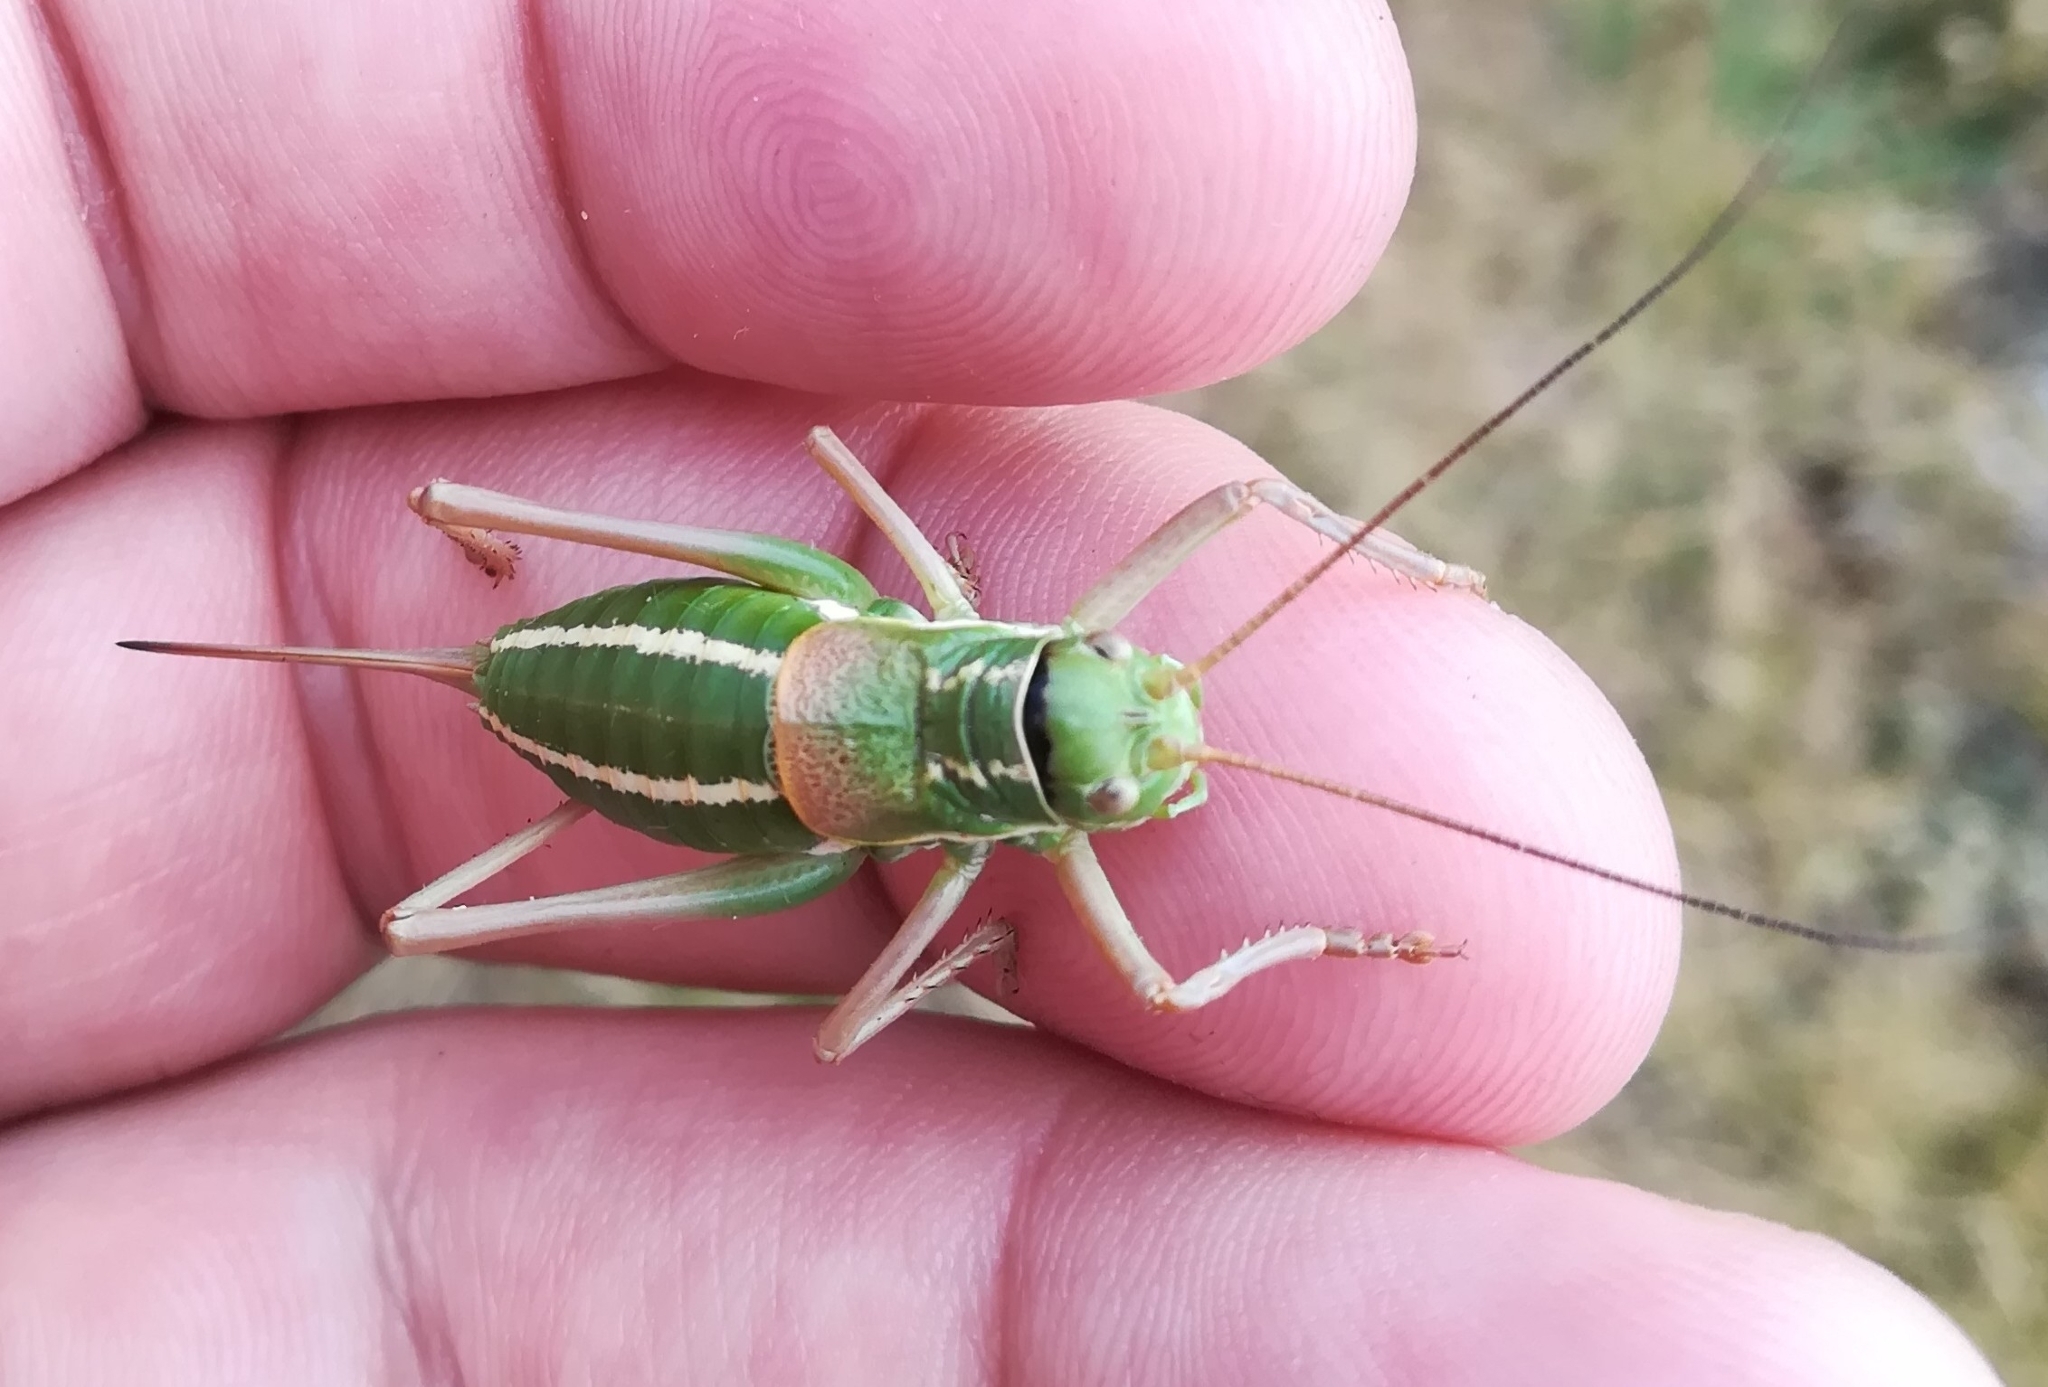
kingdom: Animalia
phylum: Arthropoda
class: Insecta
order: Orthoptera
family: Tettigoniidae
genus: Ephippiger
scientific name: Ephippiger ruffoi
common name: Pygmy saddle bush-cricket
